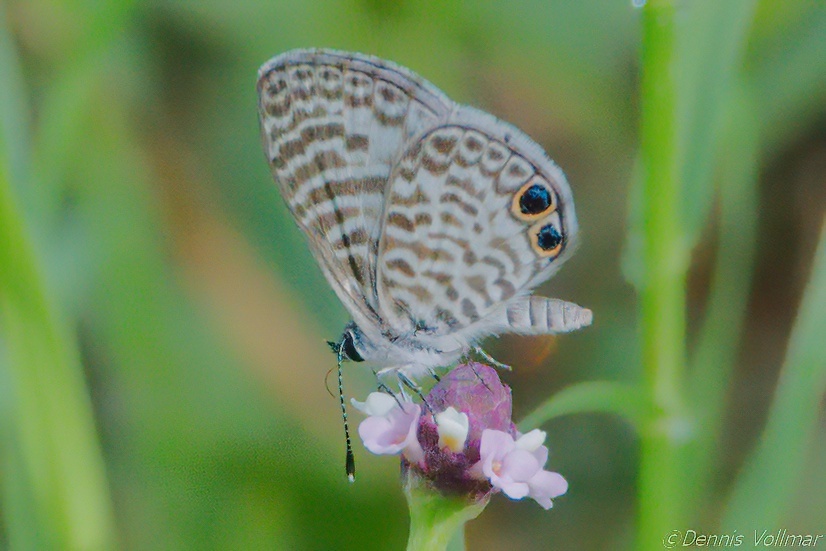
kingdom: Animalia
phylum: Arthropoda
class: Insecta
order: Lepidoptera
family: Lycaenidae
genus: Leptotes
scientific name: Leptotes cassius
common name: Cassius blue
